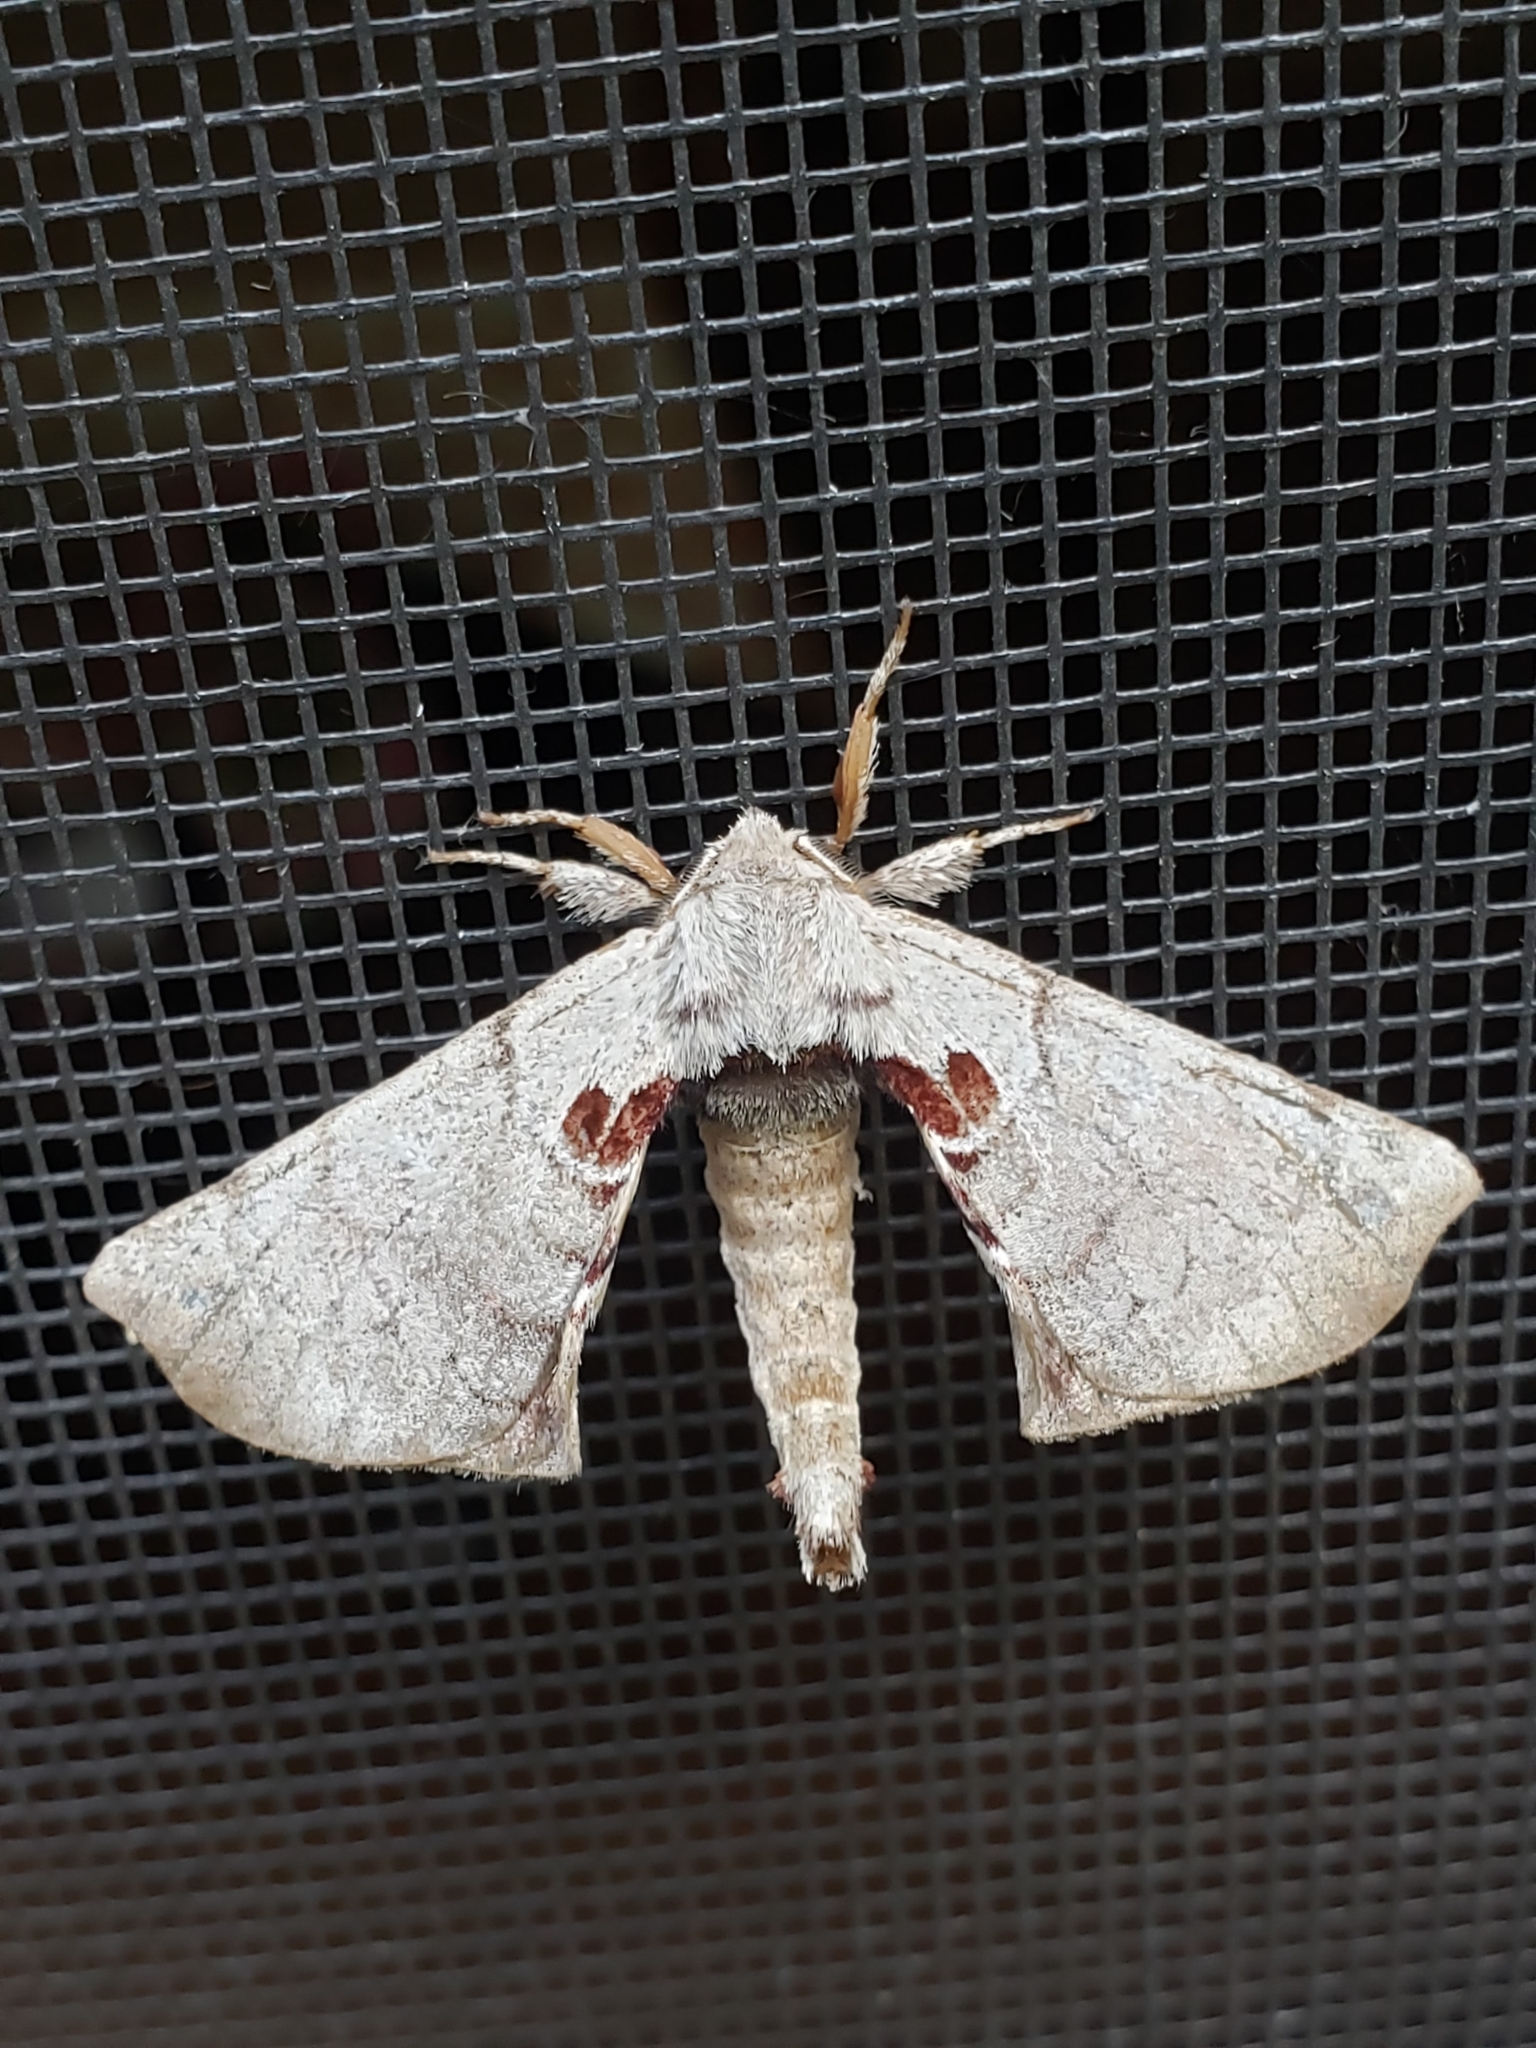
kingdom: Animalia
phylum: Arthropoda
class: Insecta
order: Lepidoptera
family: Apatelodidae
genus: Hygrochroa
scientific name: Hygrochroa Apatelodes torrefacta
